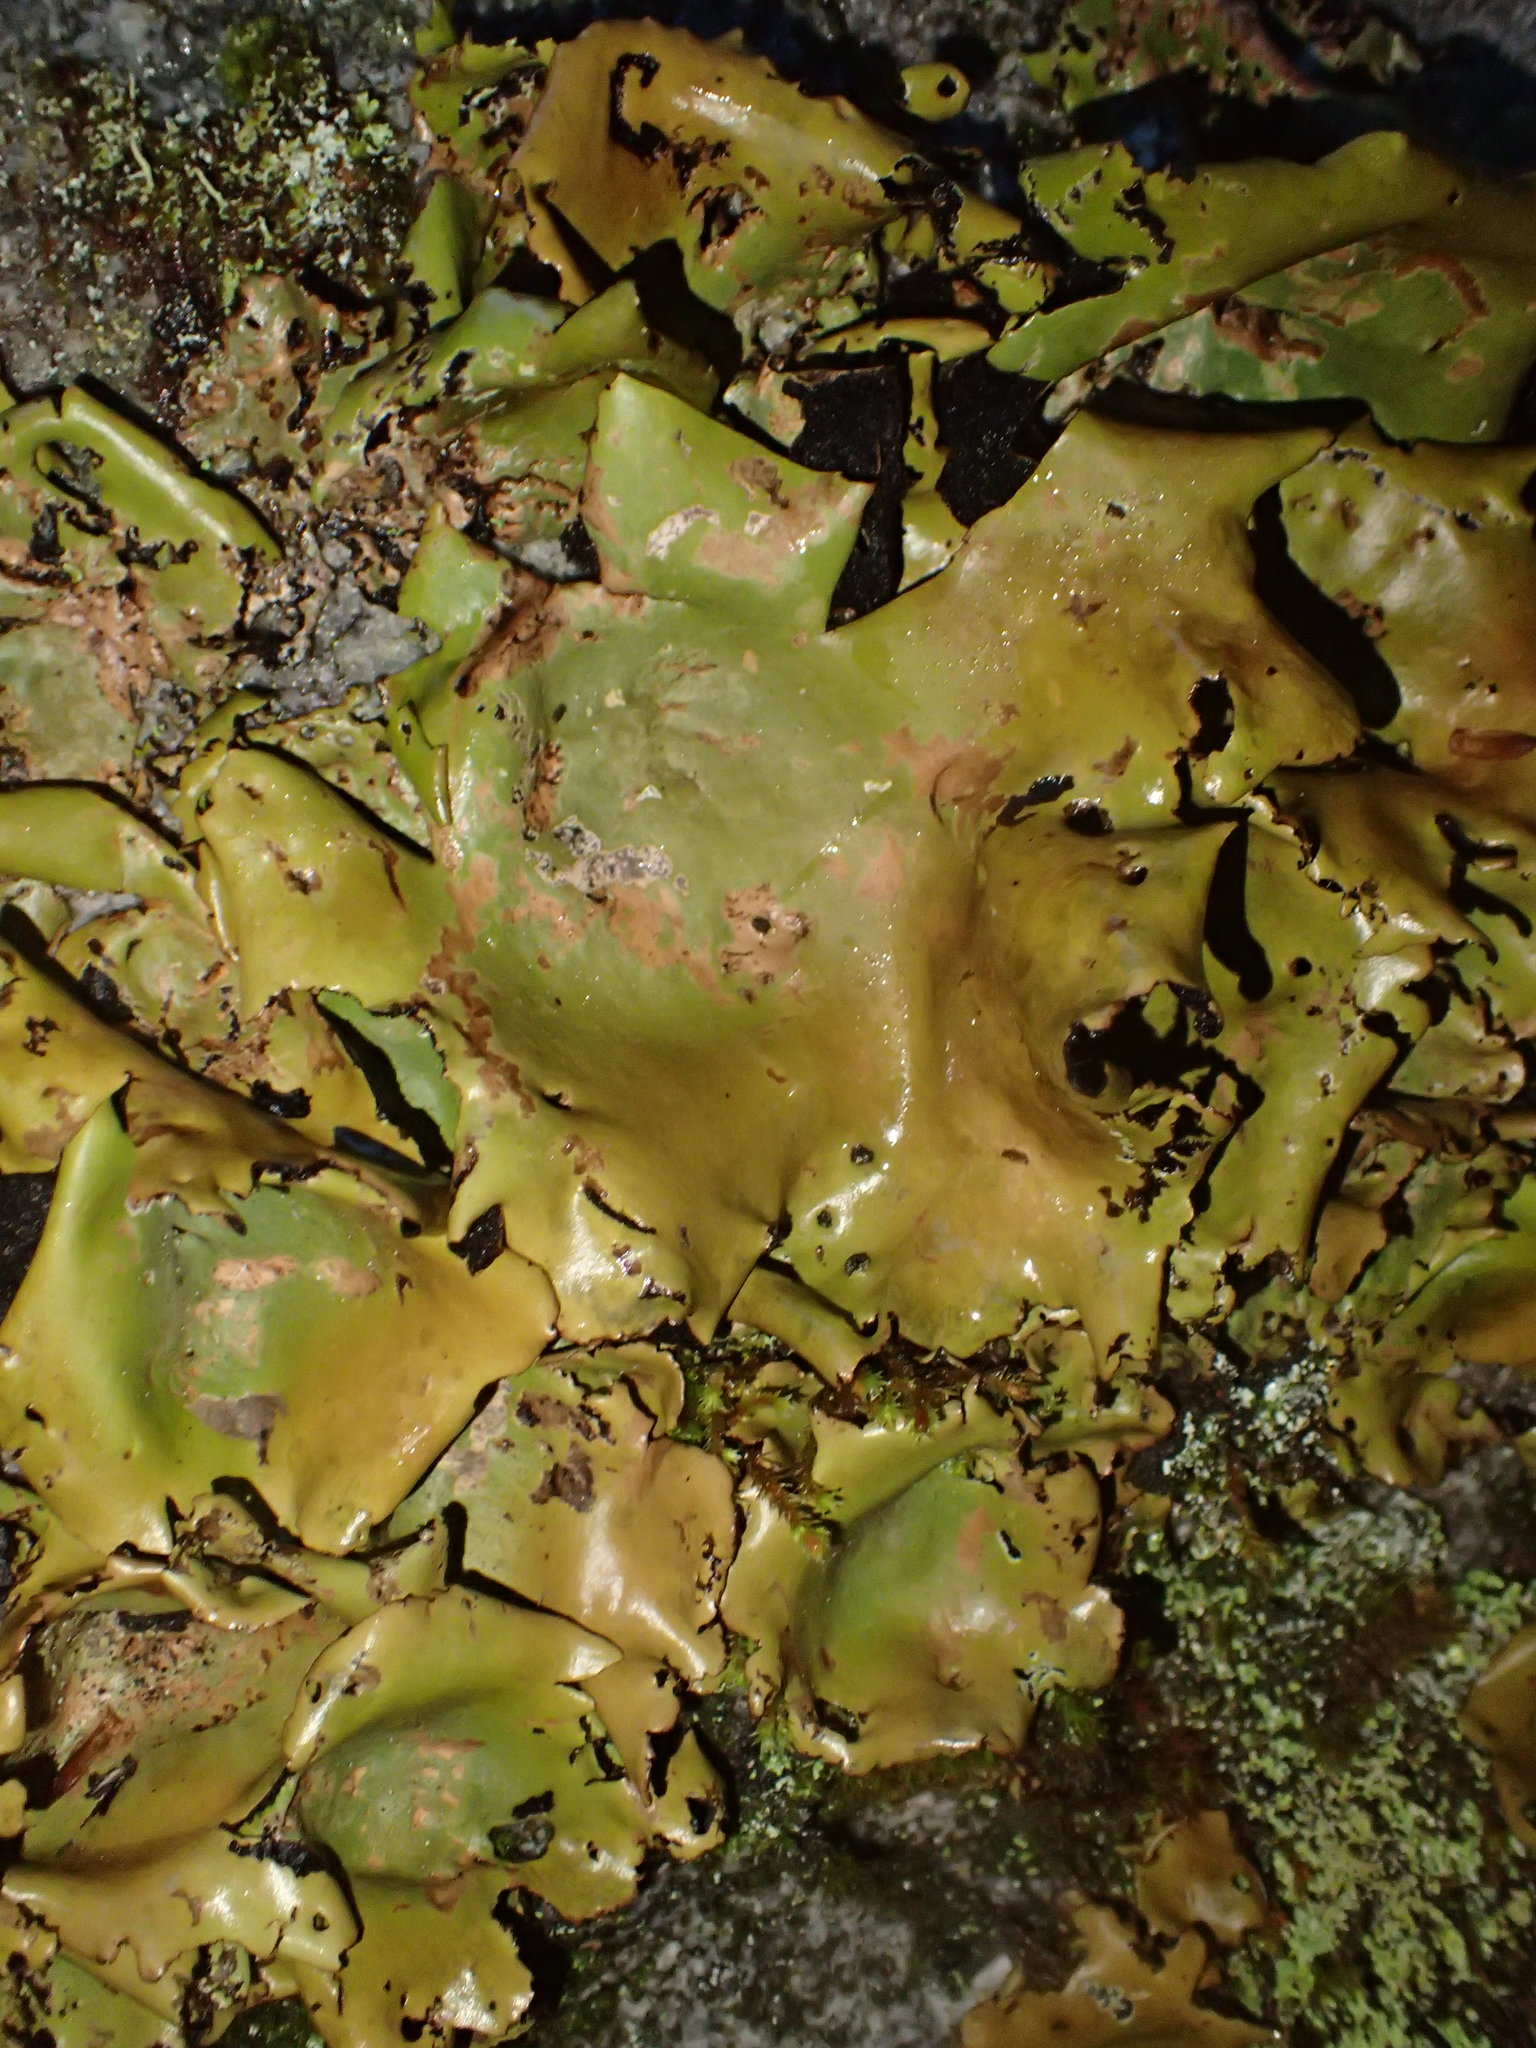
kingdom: Fungi
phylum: Ascomycota
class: Lecanoromycetes
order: Umbilicariales
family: Umbilicariaceae
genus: Umbilicaria
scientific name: Umbilicaria mammulata
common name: Smooth rock tripe
